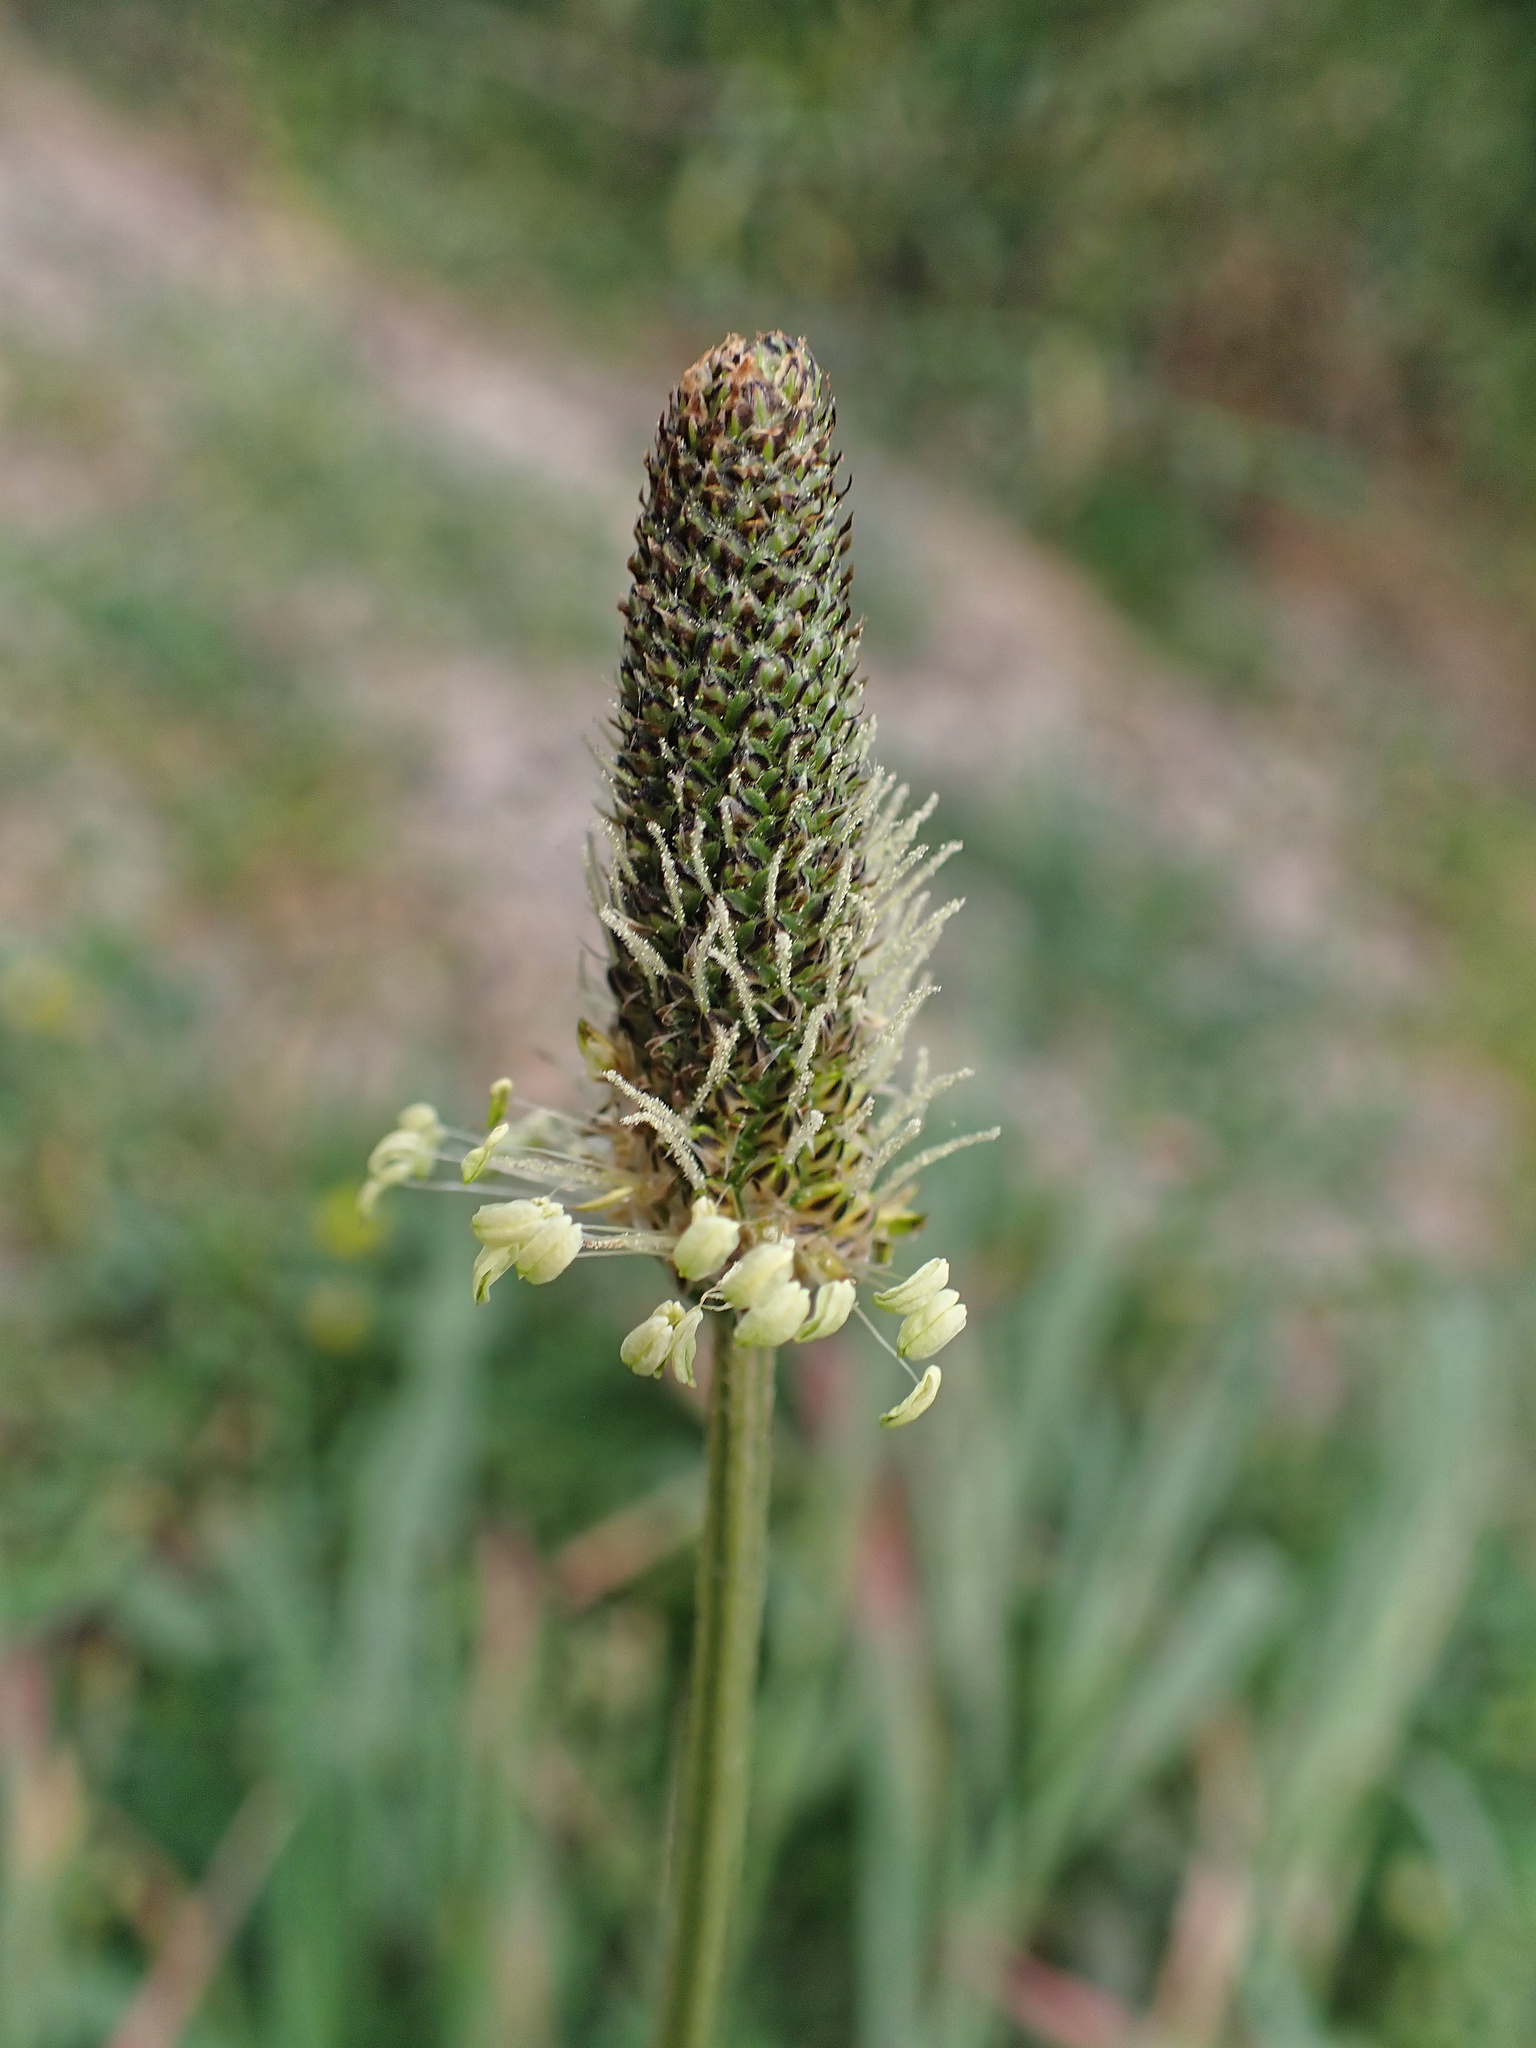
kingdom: Plantae
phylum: Tracheophyta
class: Magnoliopsida
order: Lamiales
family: Plantaginaceae
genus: Plantago
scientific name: Plantago lanceolata
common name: Ribwort plantain
